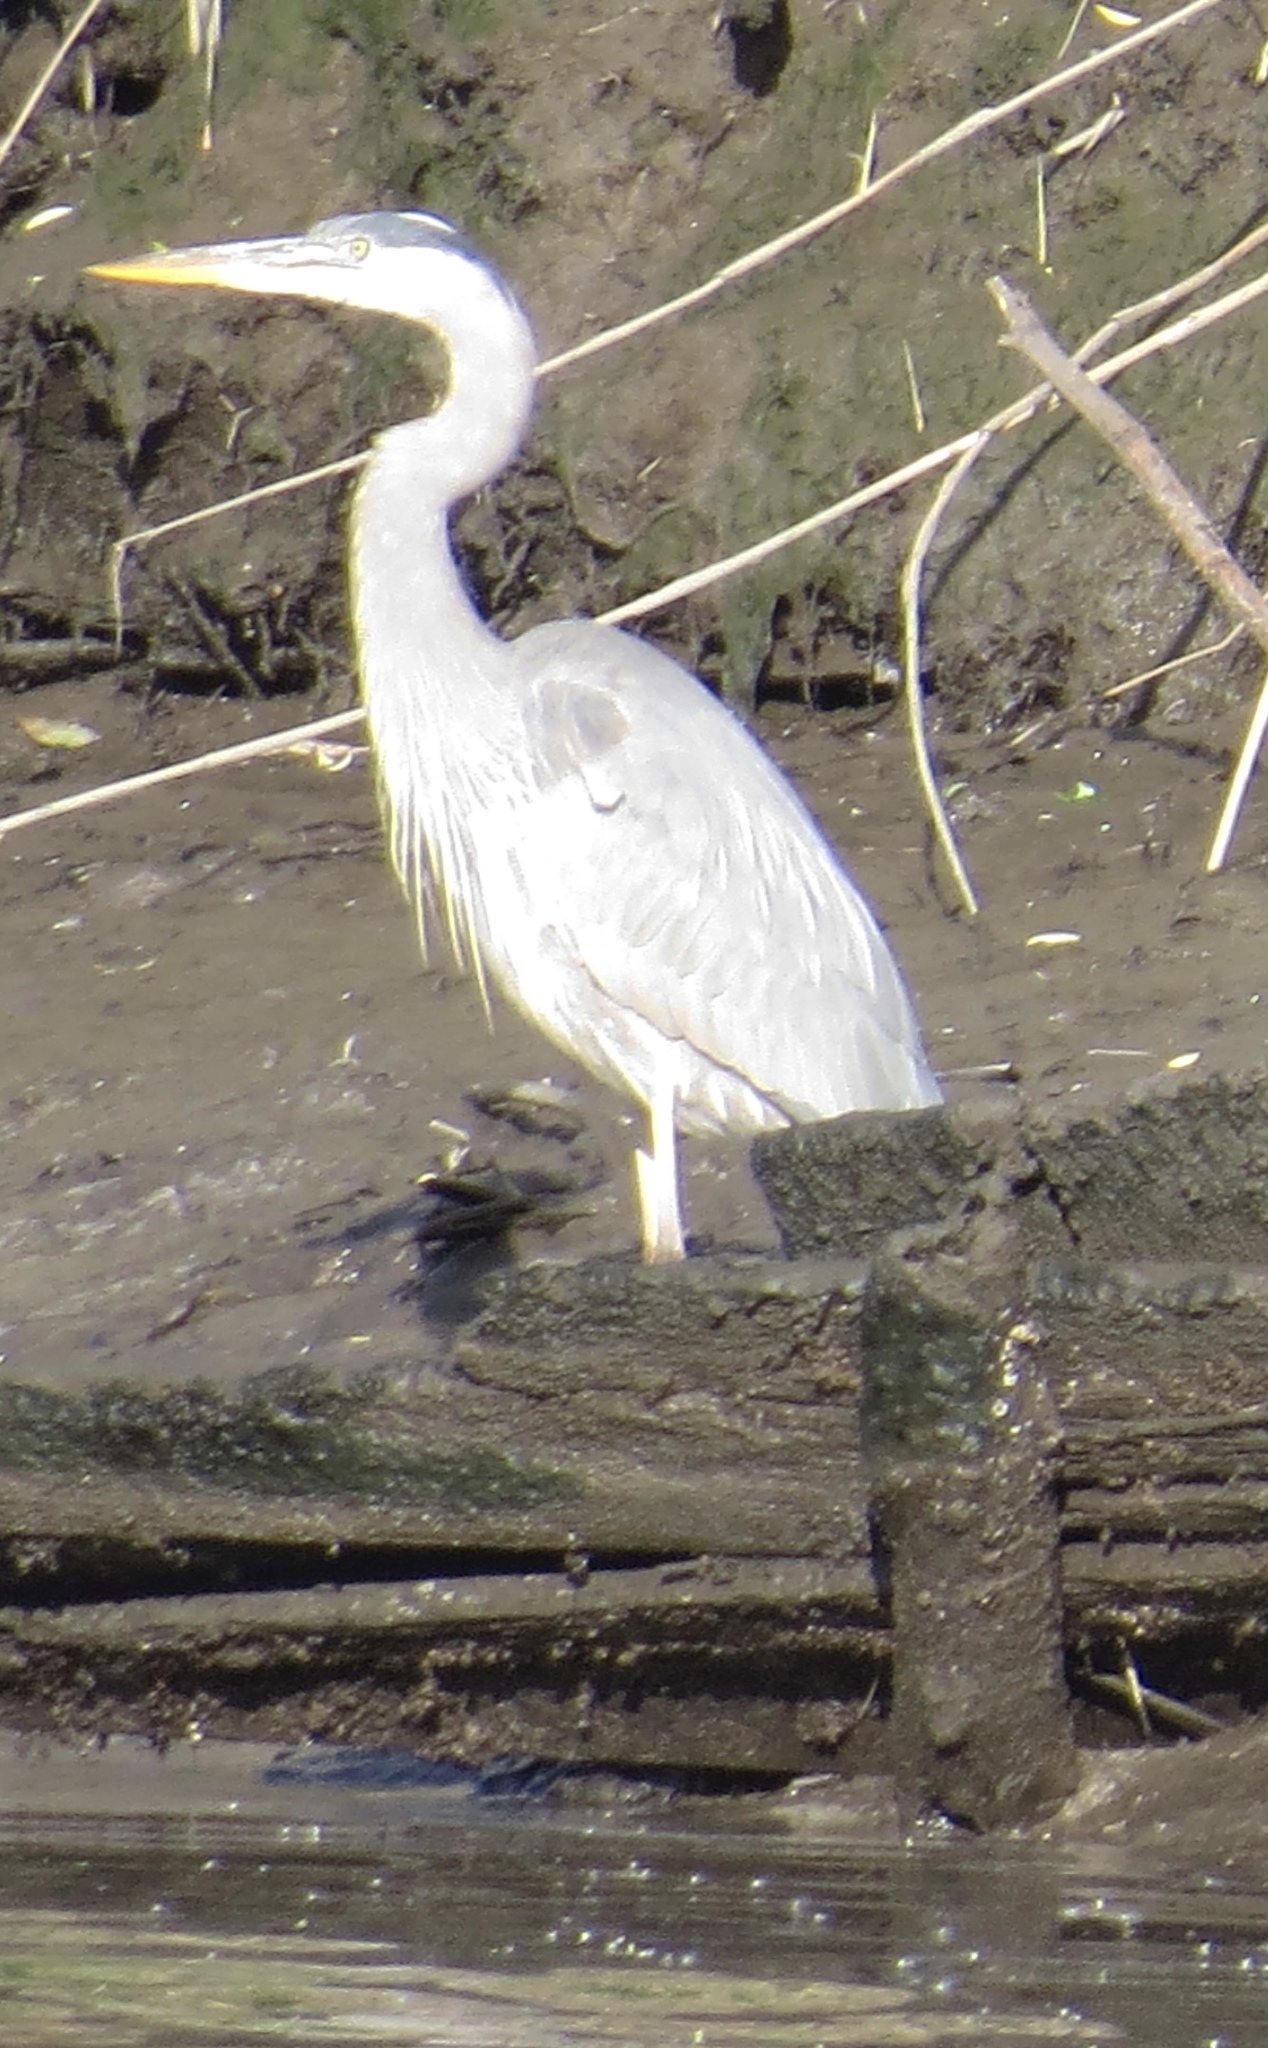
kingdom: Animalia
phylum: Chordata
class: Aves
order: Pelecaniformes
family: Ardeidae
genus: Ardea
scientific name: Ardea herodias
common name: Great blue heron
